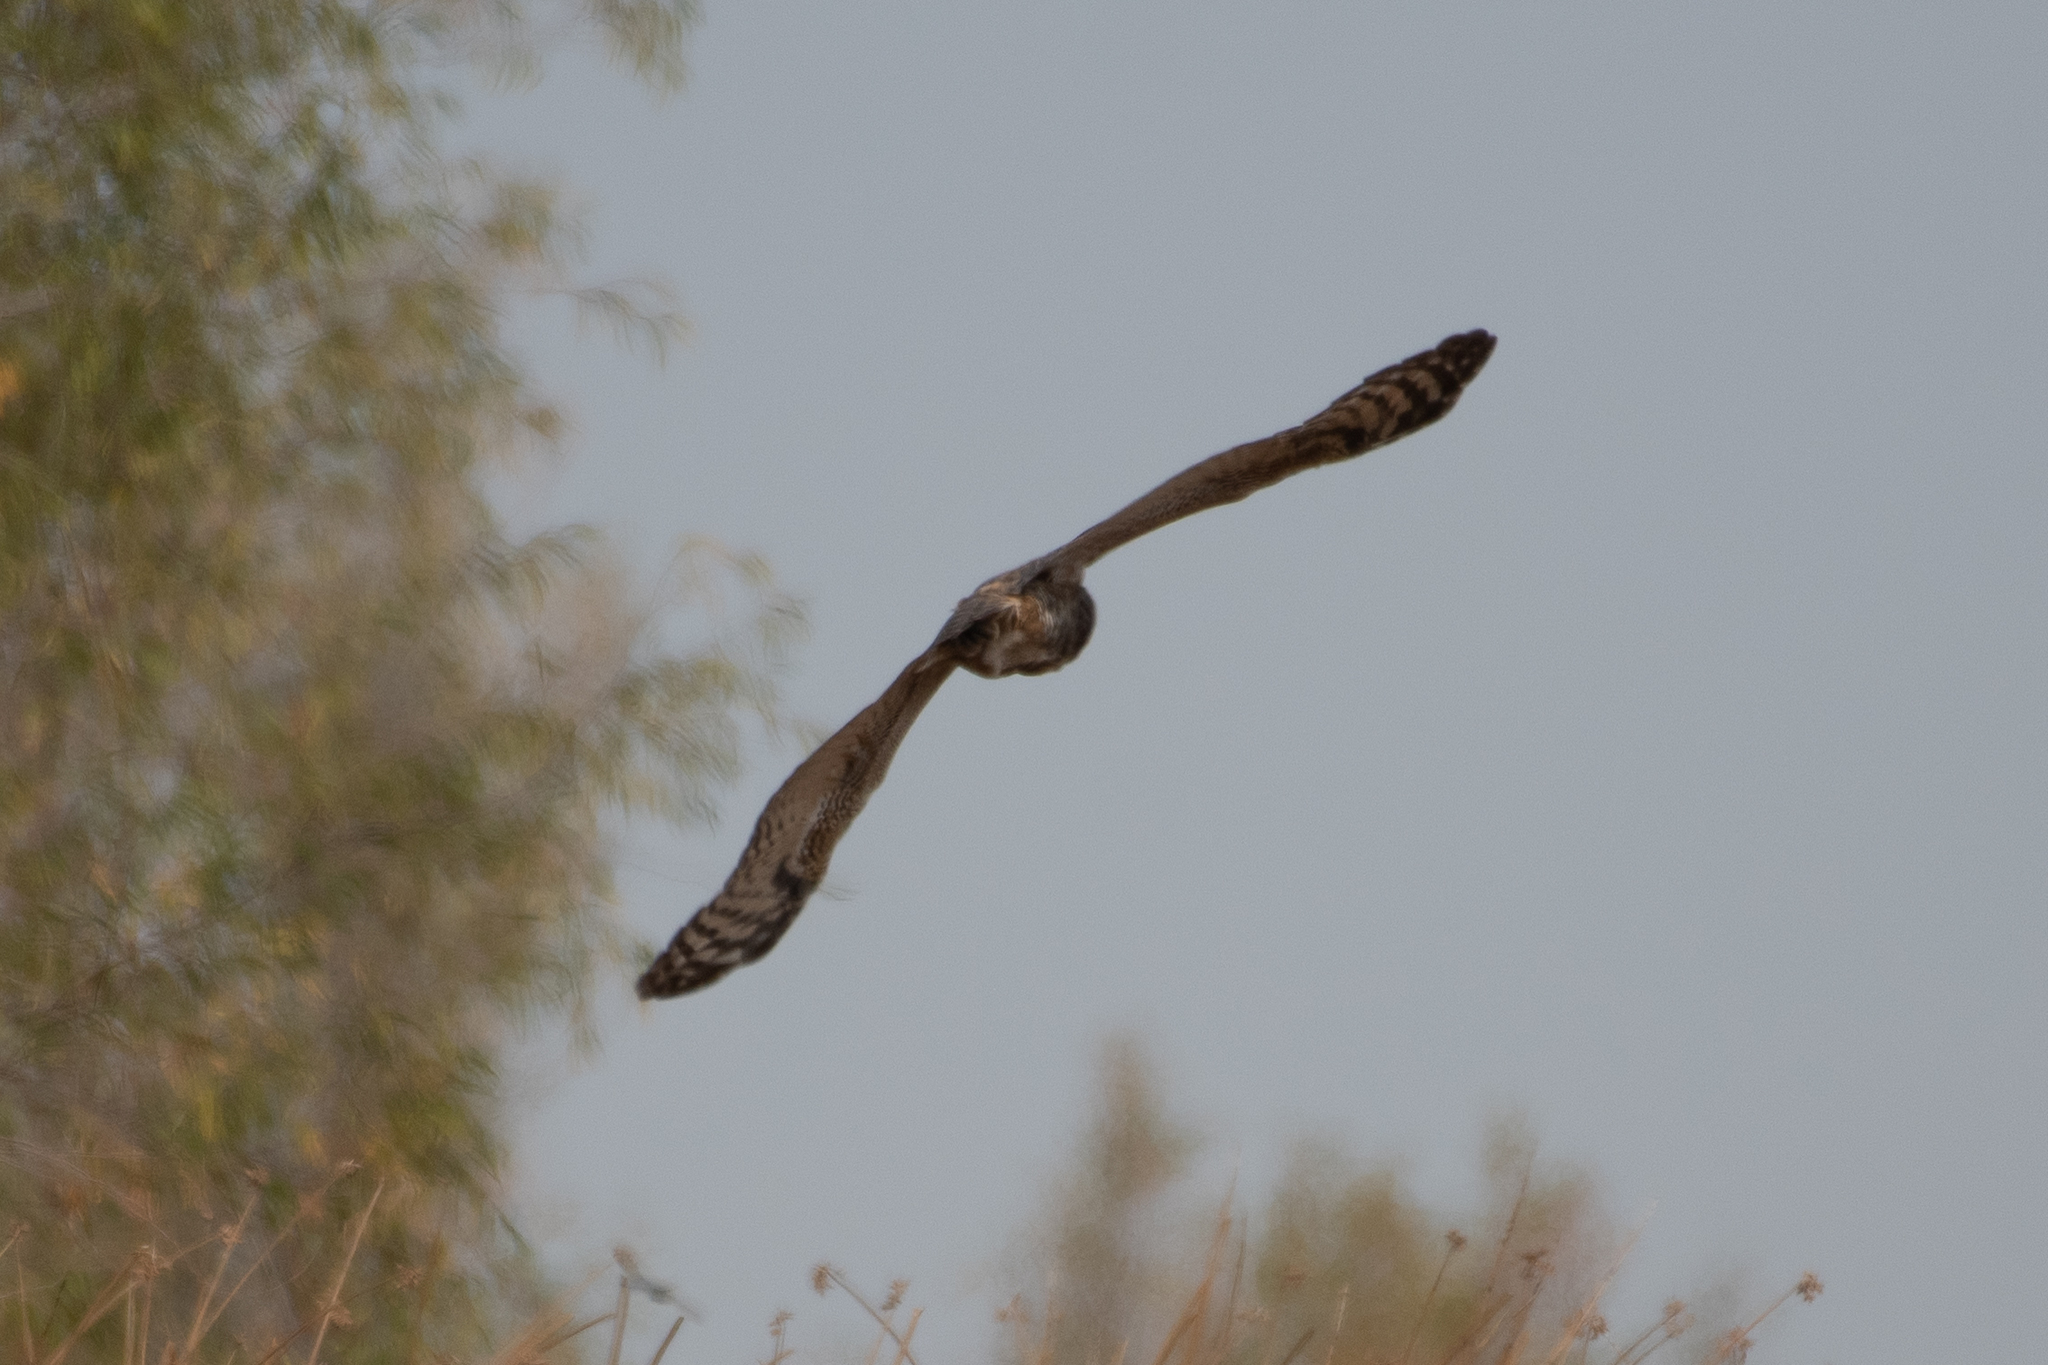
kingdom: Animalia
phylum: Chordata
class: Aves
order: Strigiformes
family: Strigidae
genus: Bubo
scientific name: Bubo virginianus
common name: Great horned owl
